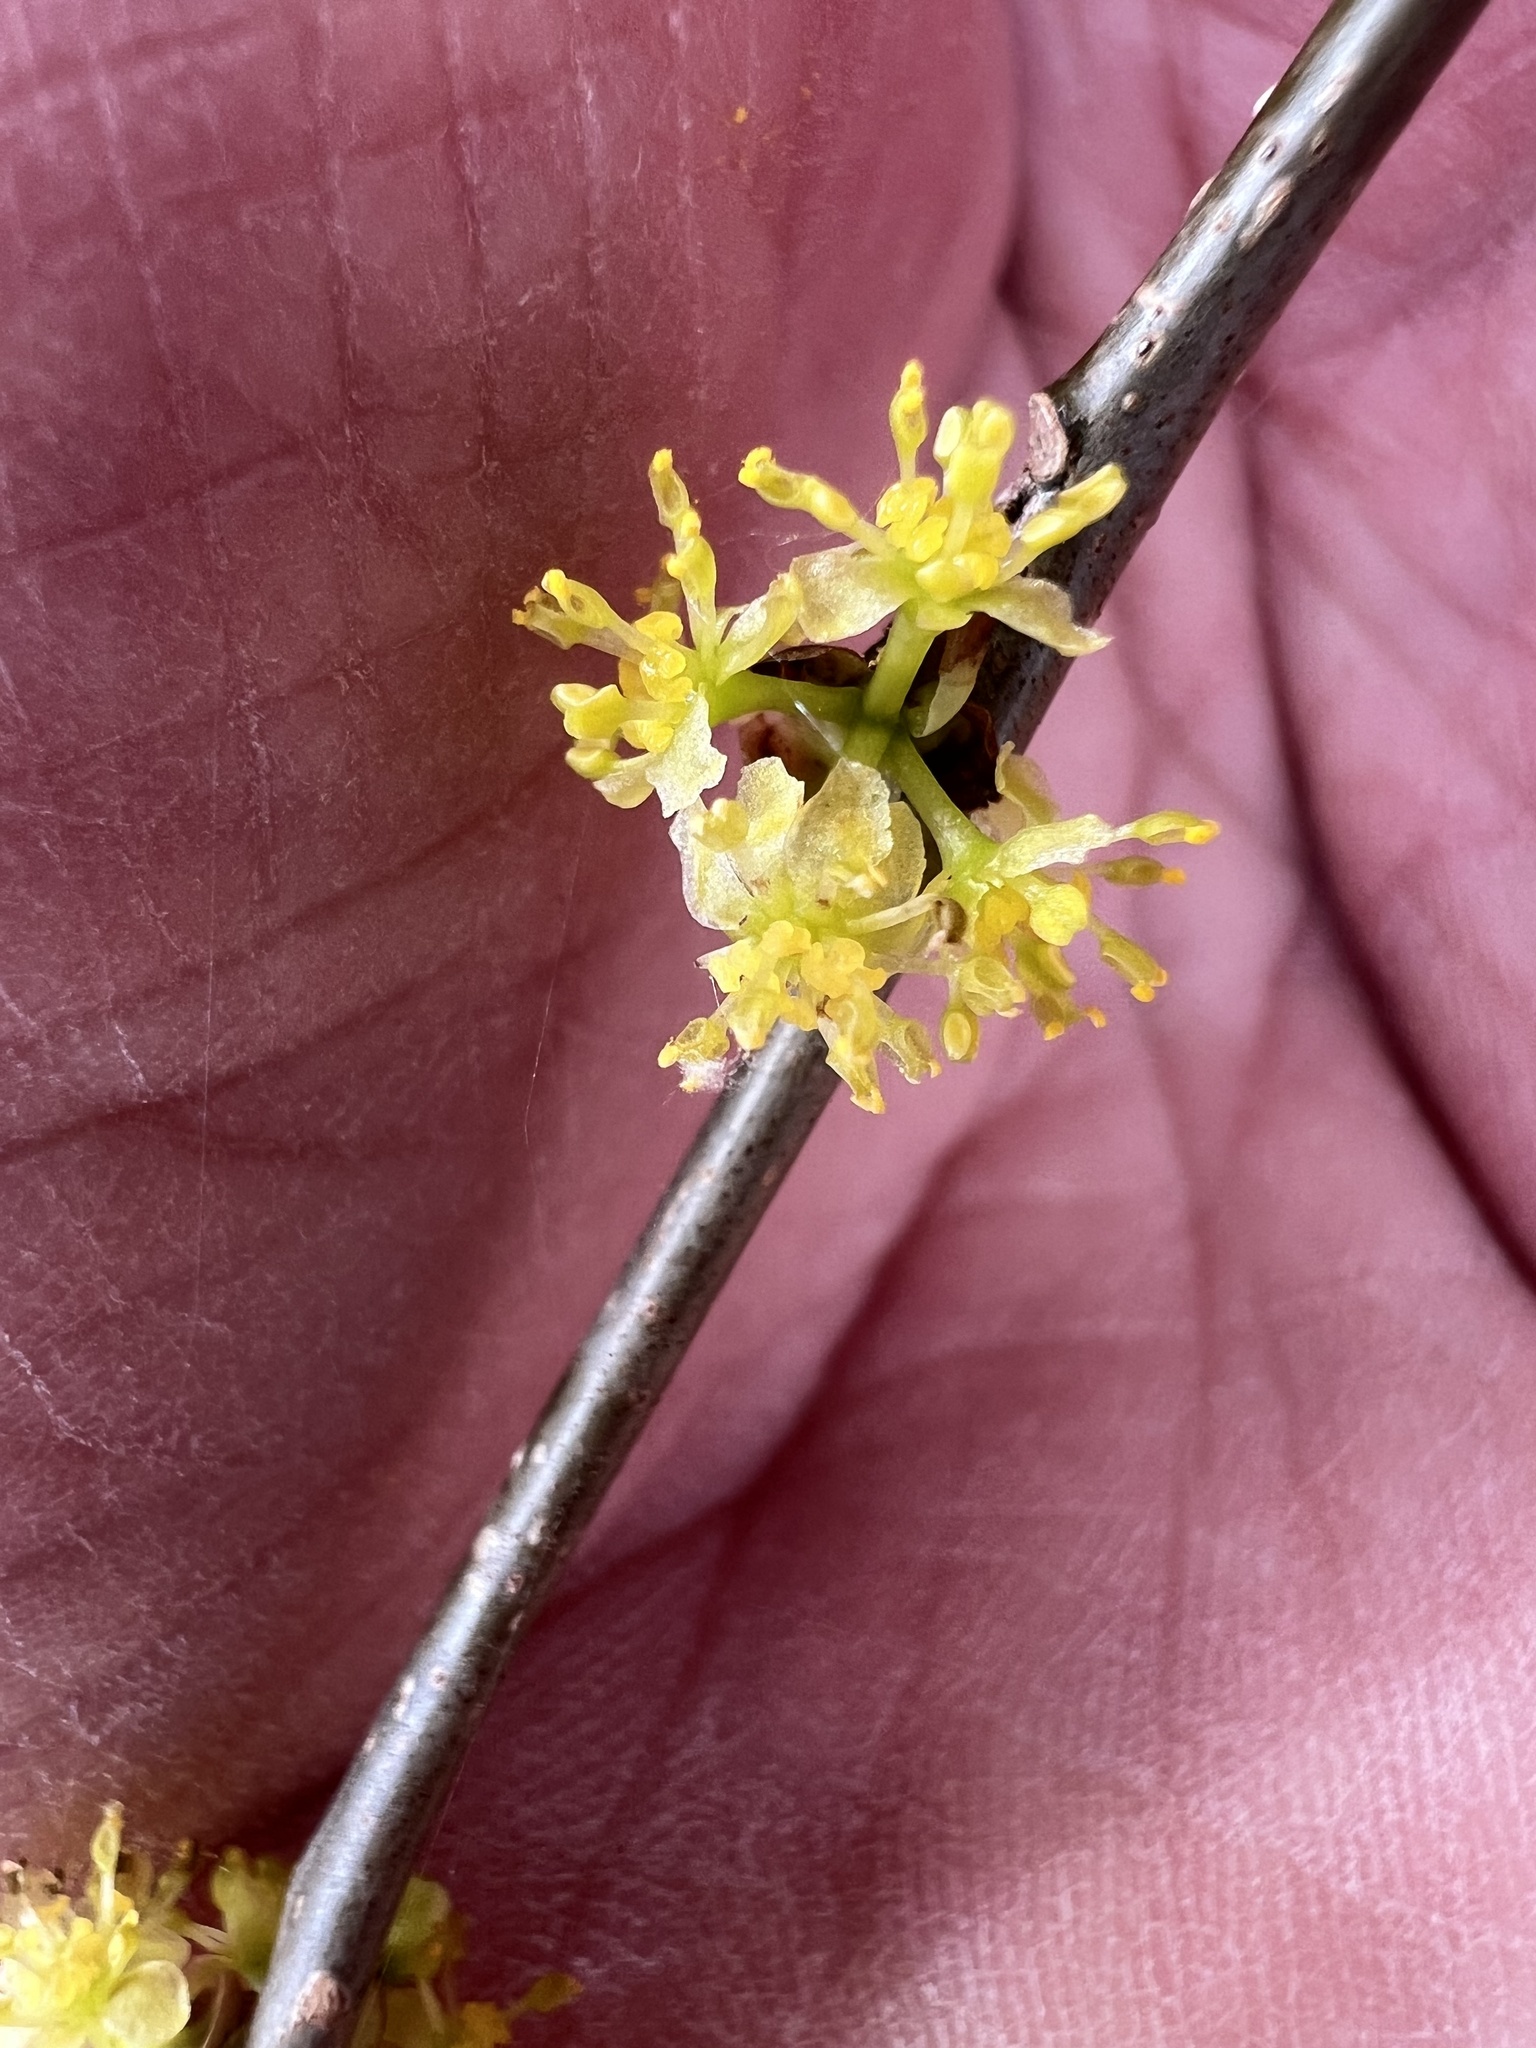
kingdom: Plantae
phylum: Tracheophyta
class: Magnoliopsida
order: Laurales
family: Lauraceae
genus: Lindera
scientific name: Lindera benzoin
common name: Spicebush
